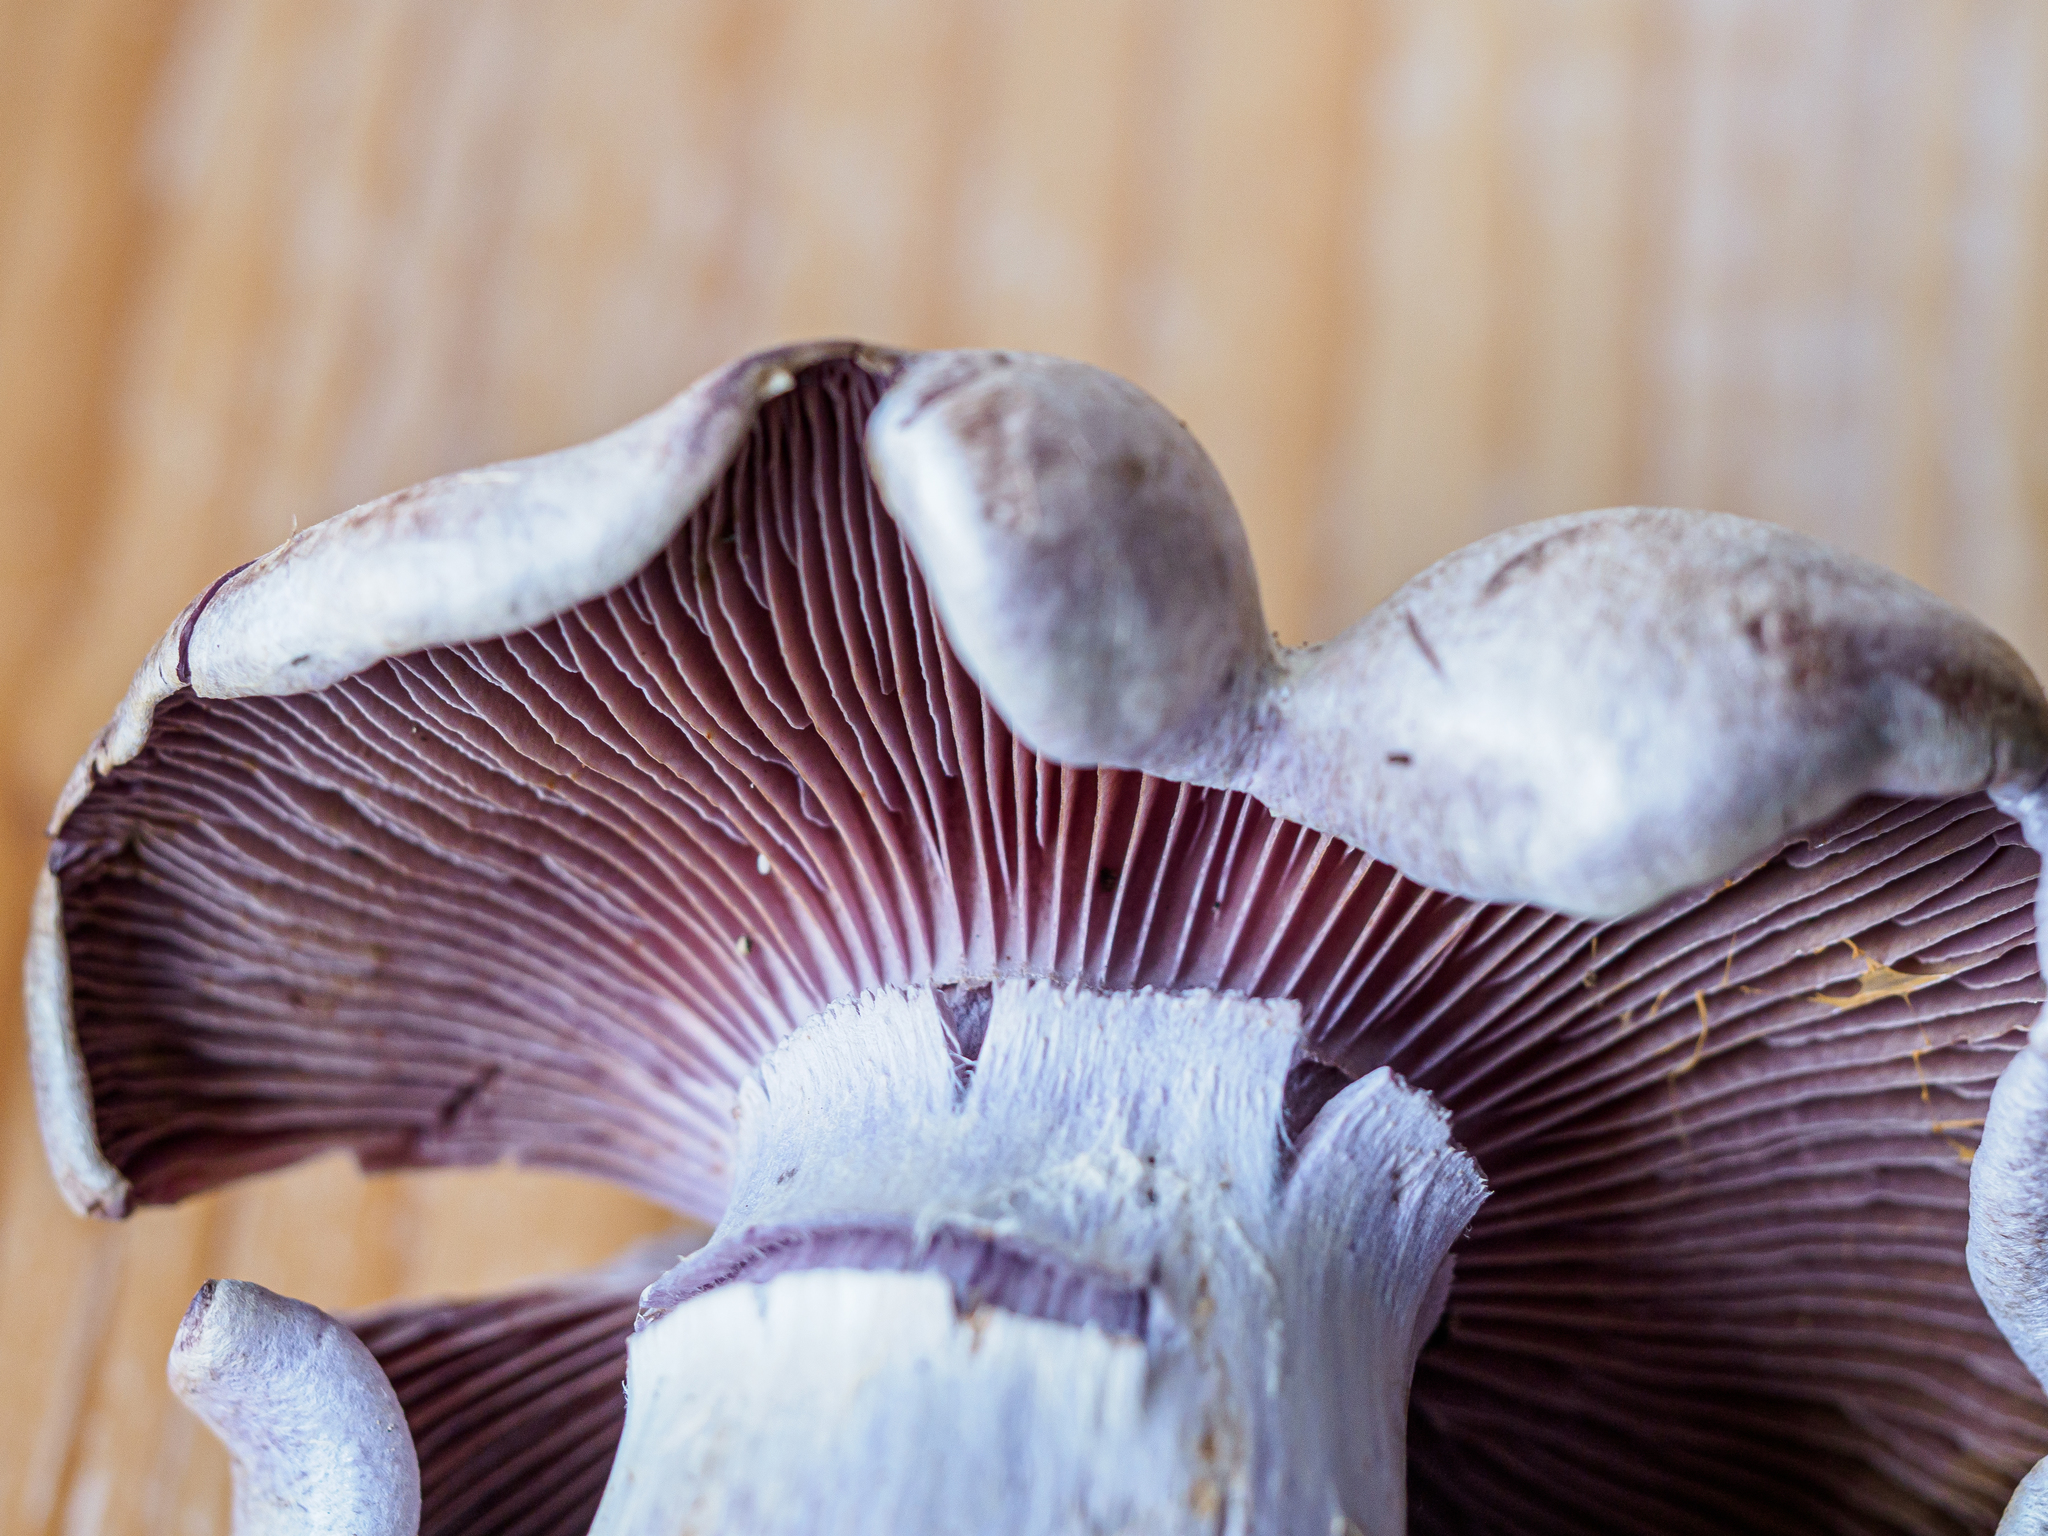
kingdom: Fungi
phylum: Basidiomycota
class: Agaricomycetes
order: Agaricales
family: Cortinariaceae
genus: Cortinarius
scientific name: Cortinarius camphoratus
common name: Goatcheese webcap
